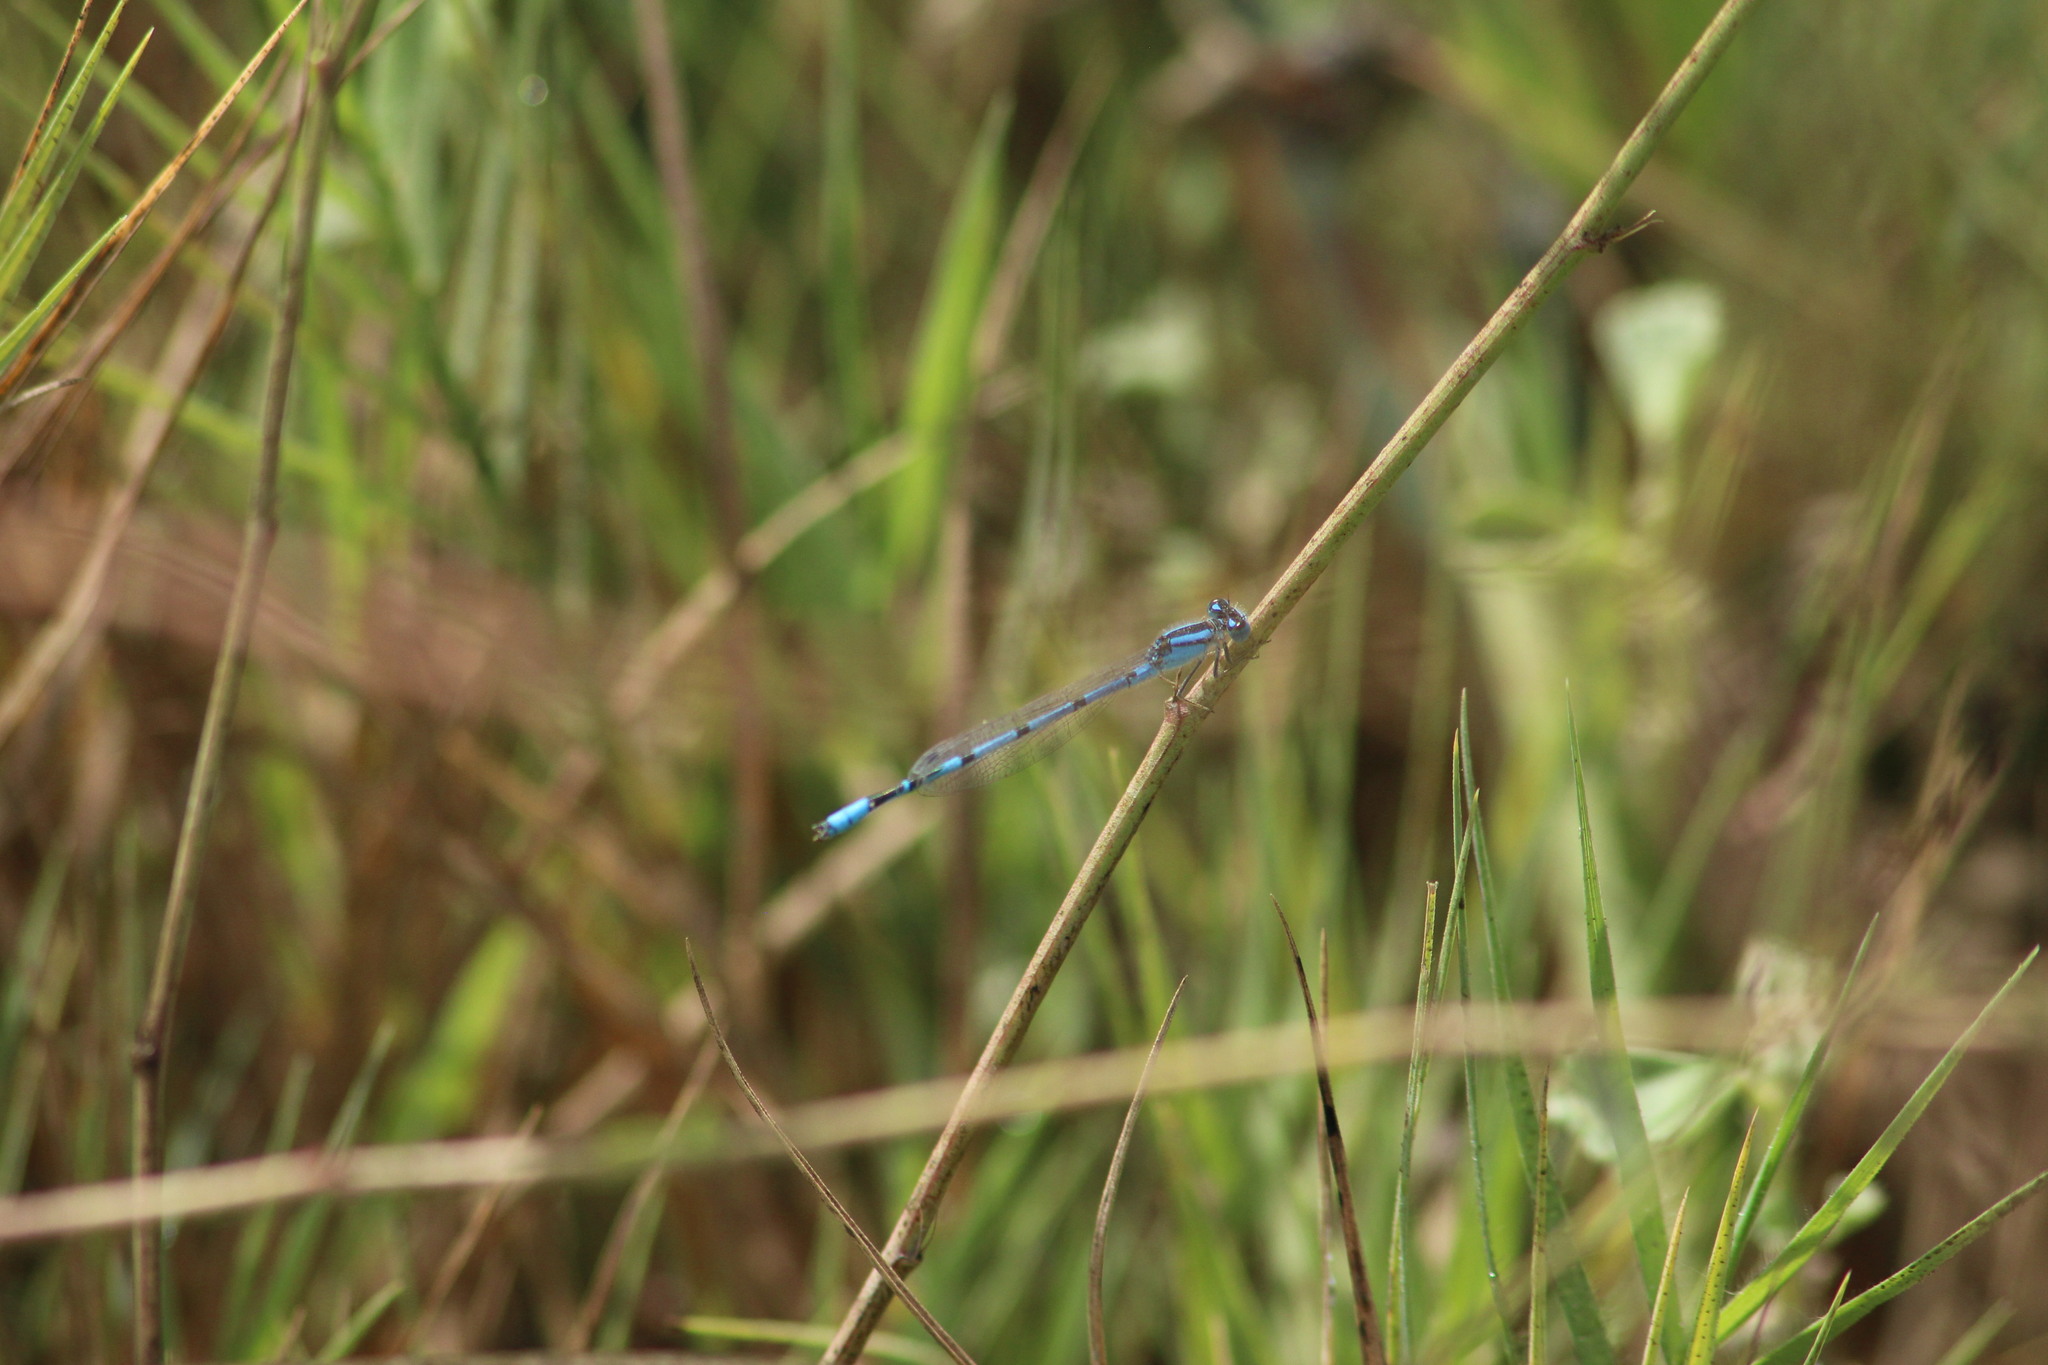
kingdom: Animalia
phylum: Arthropoda
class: Insecta
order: Odonata
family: Coenagrionidae
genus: Enallagma
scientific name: Enallagma civile
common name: Damselfly
